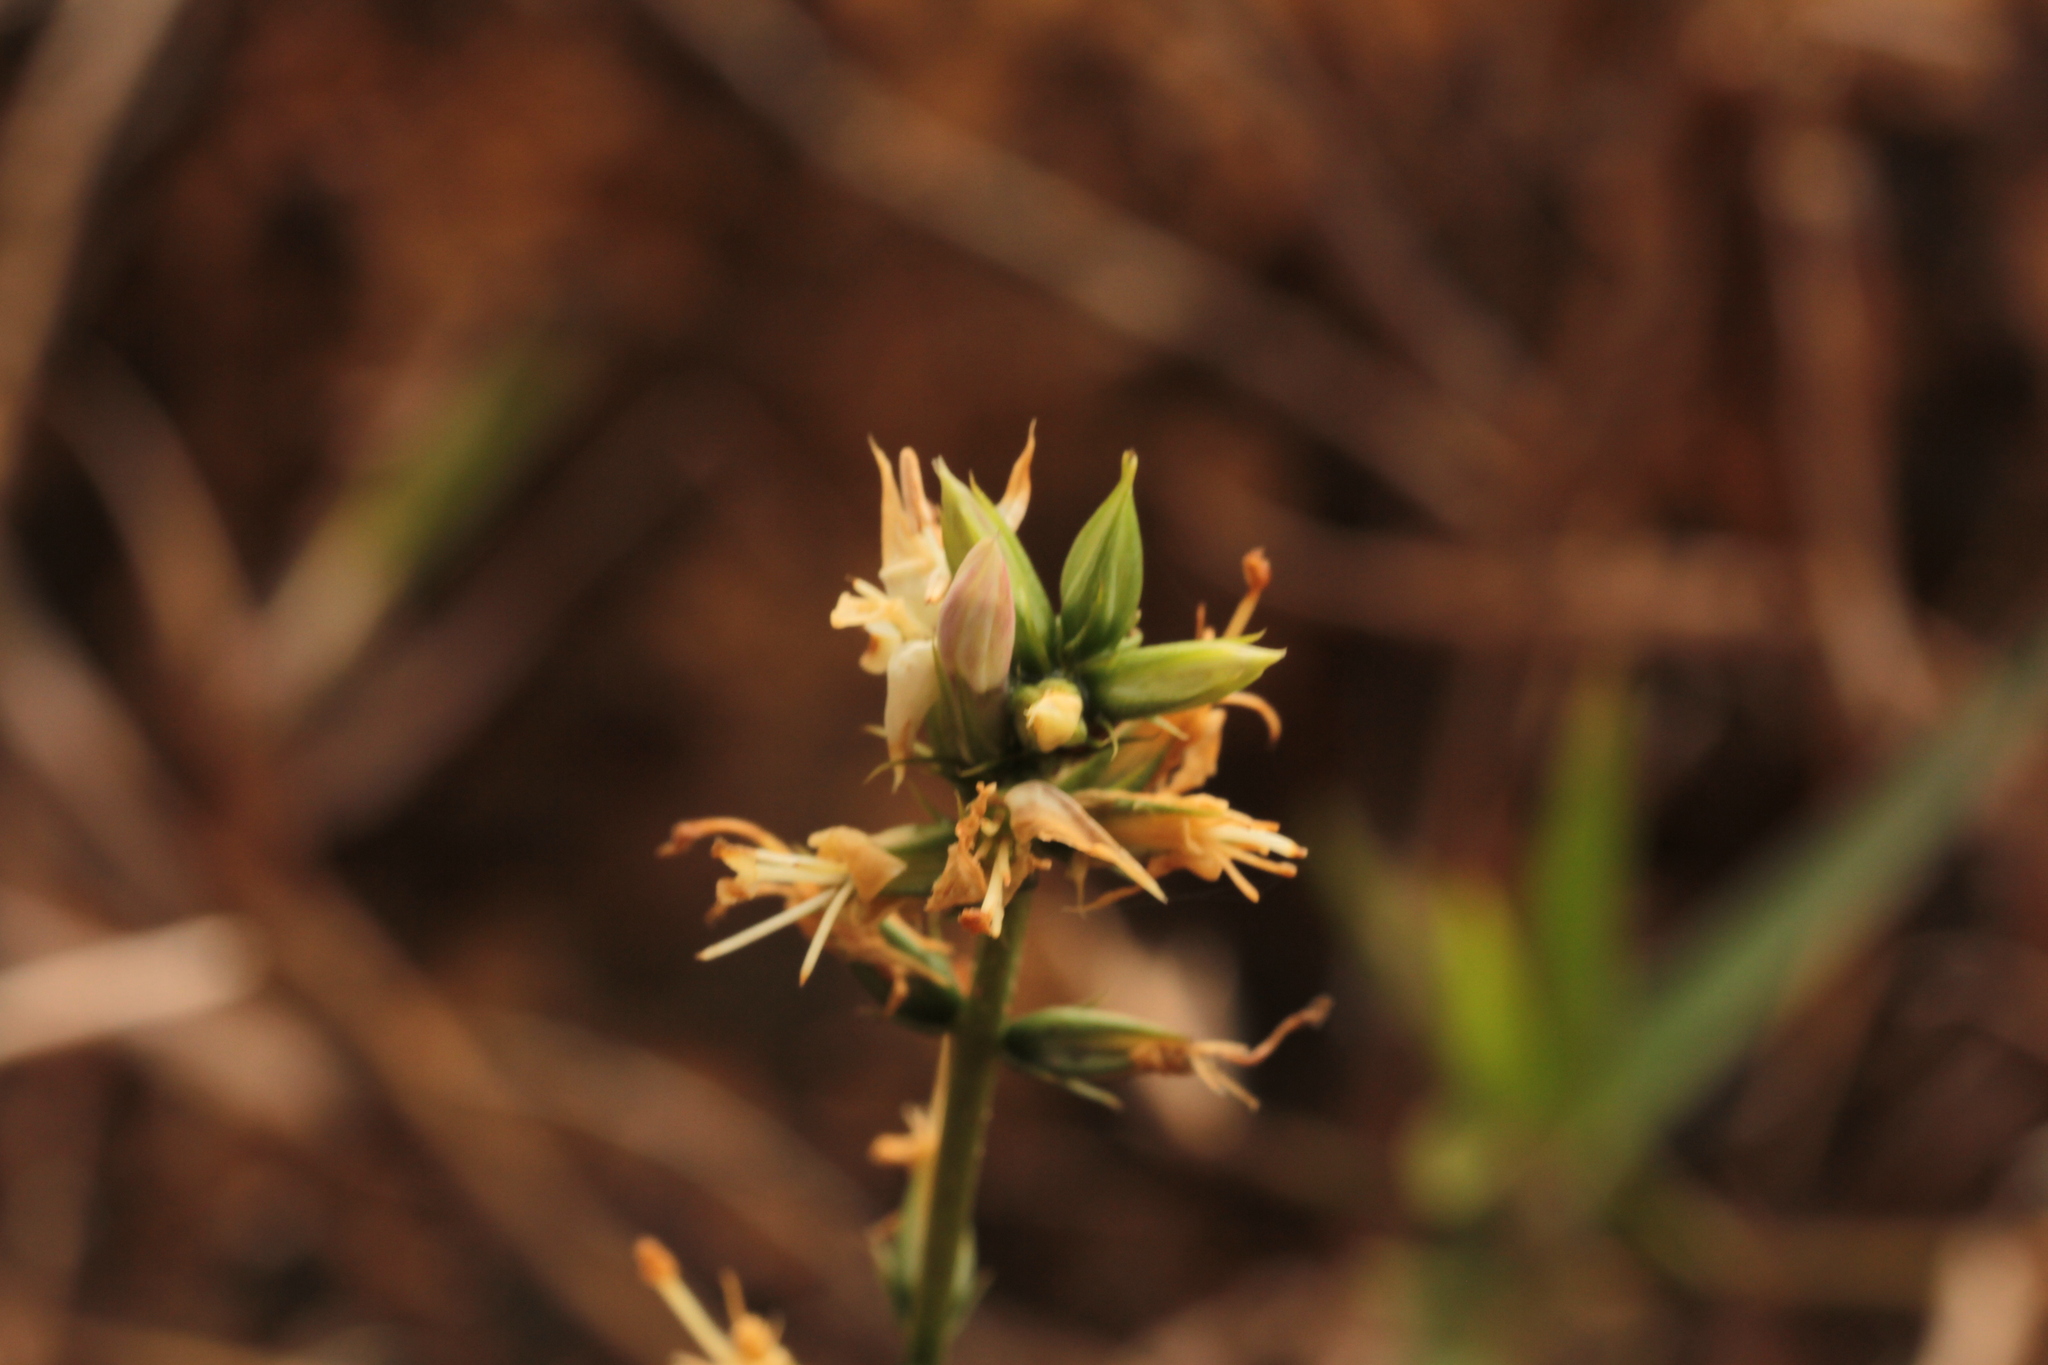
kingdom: Plantae
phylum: Tracheophyta
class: Magnoliopsida
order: Gentianales
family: Gentianaceae
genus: Coutoubea
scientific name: Coutoubea spicata
